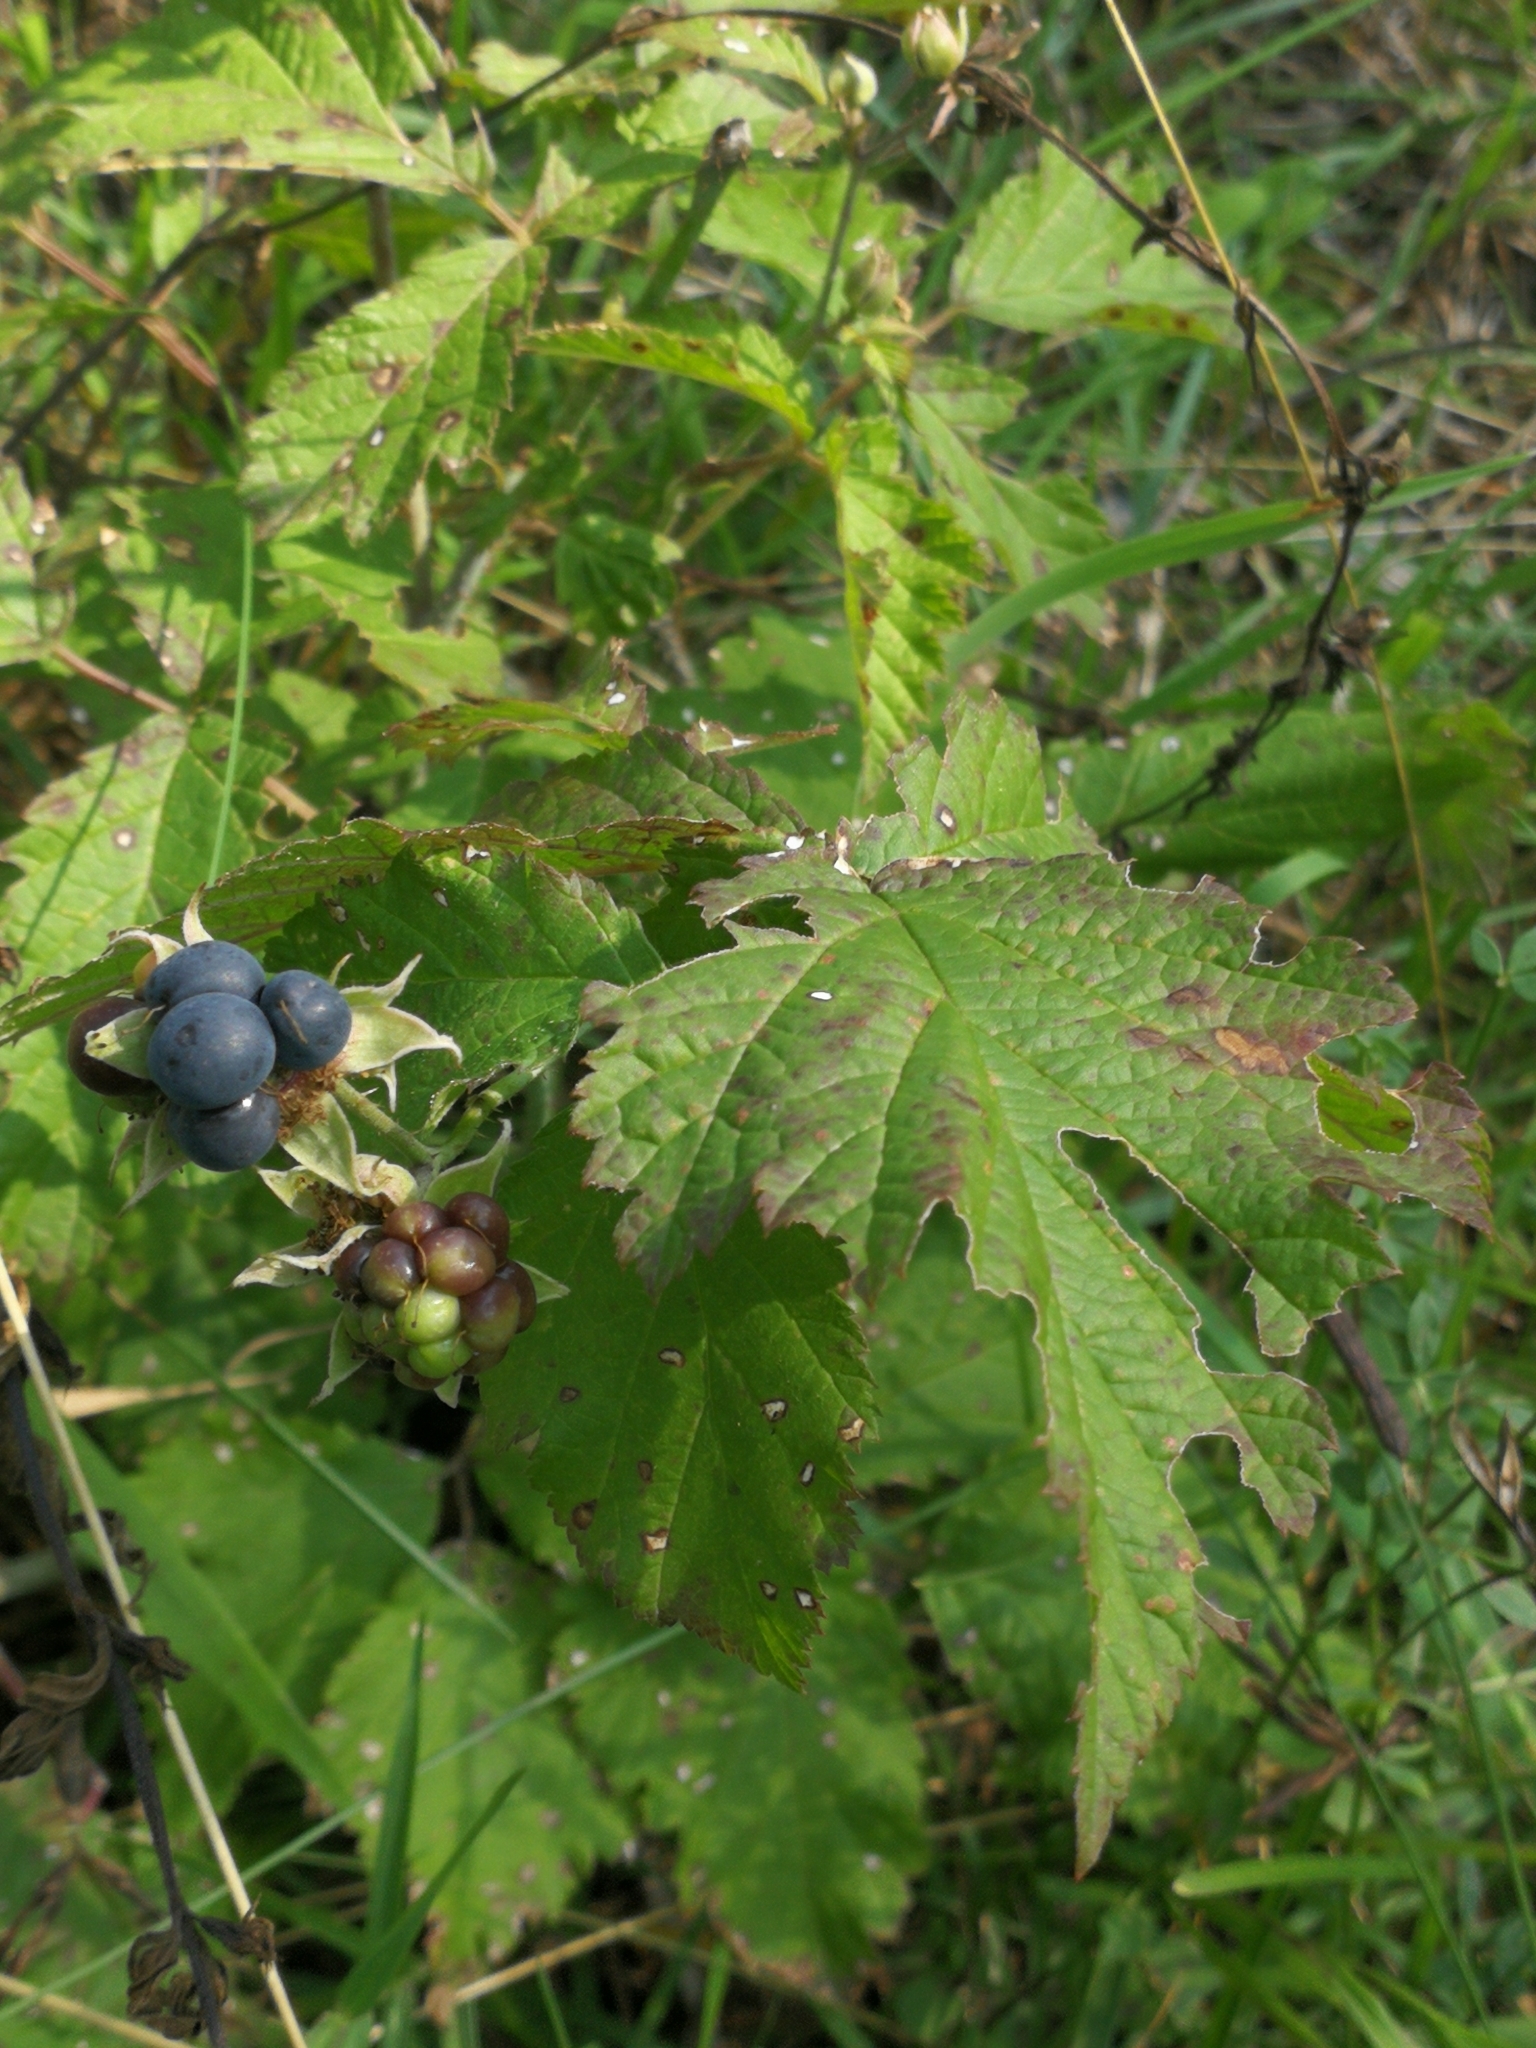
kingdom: Plantae
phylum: Tracheophyta
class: Magnoliopsida
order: Rosales
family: Rosaceae
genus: Rubus
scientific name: Rubus caesius
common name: Dewberry
